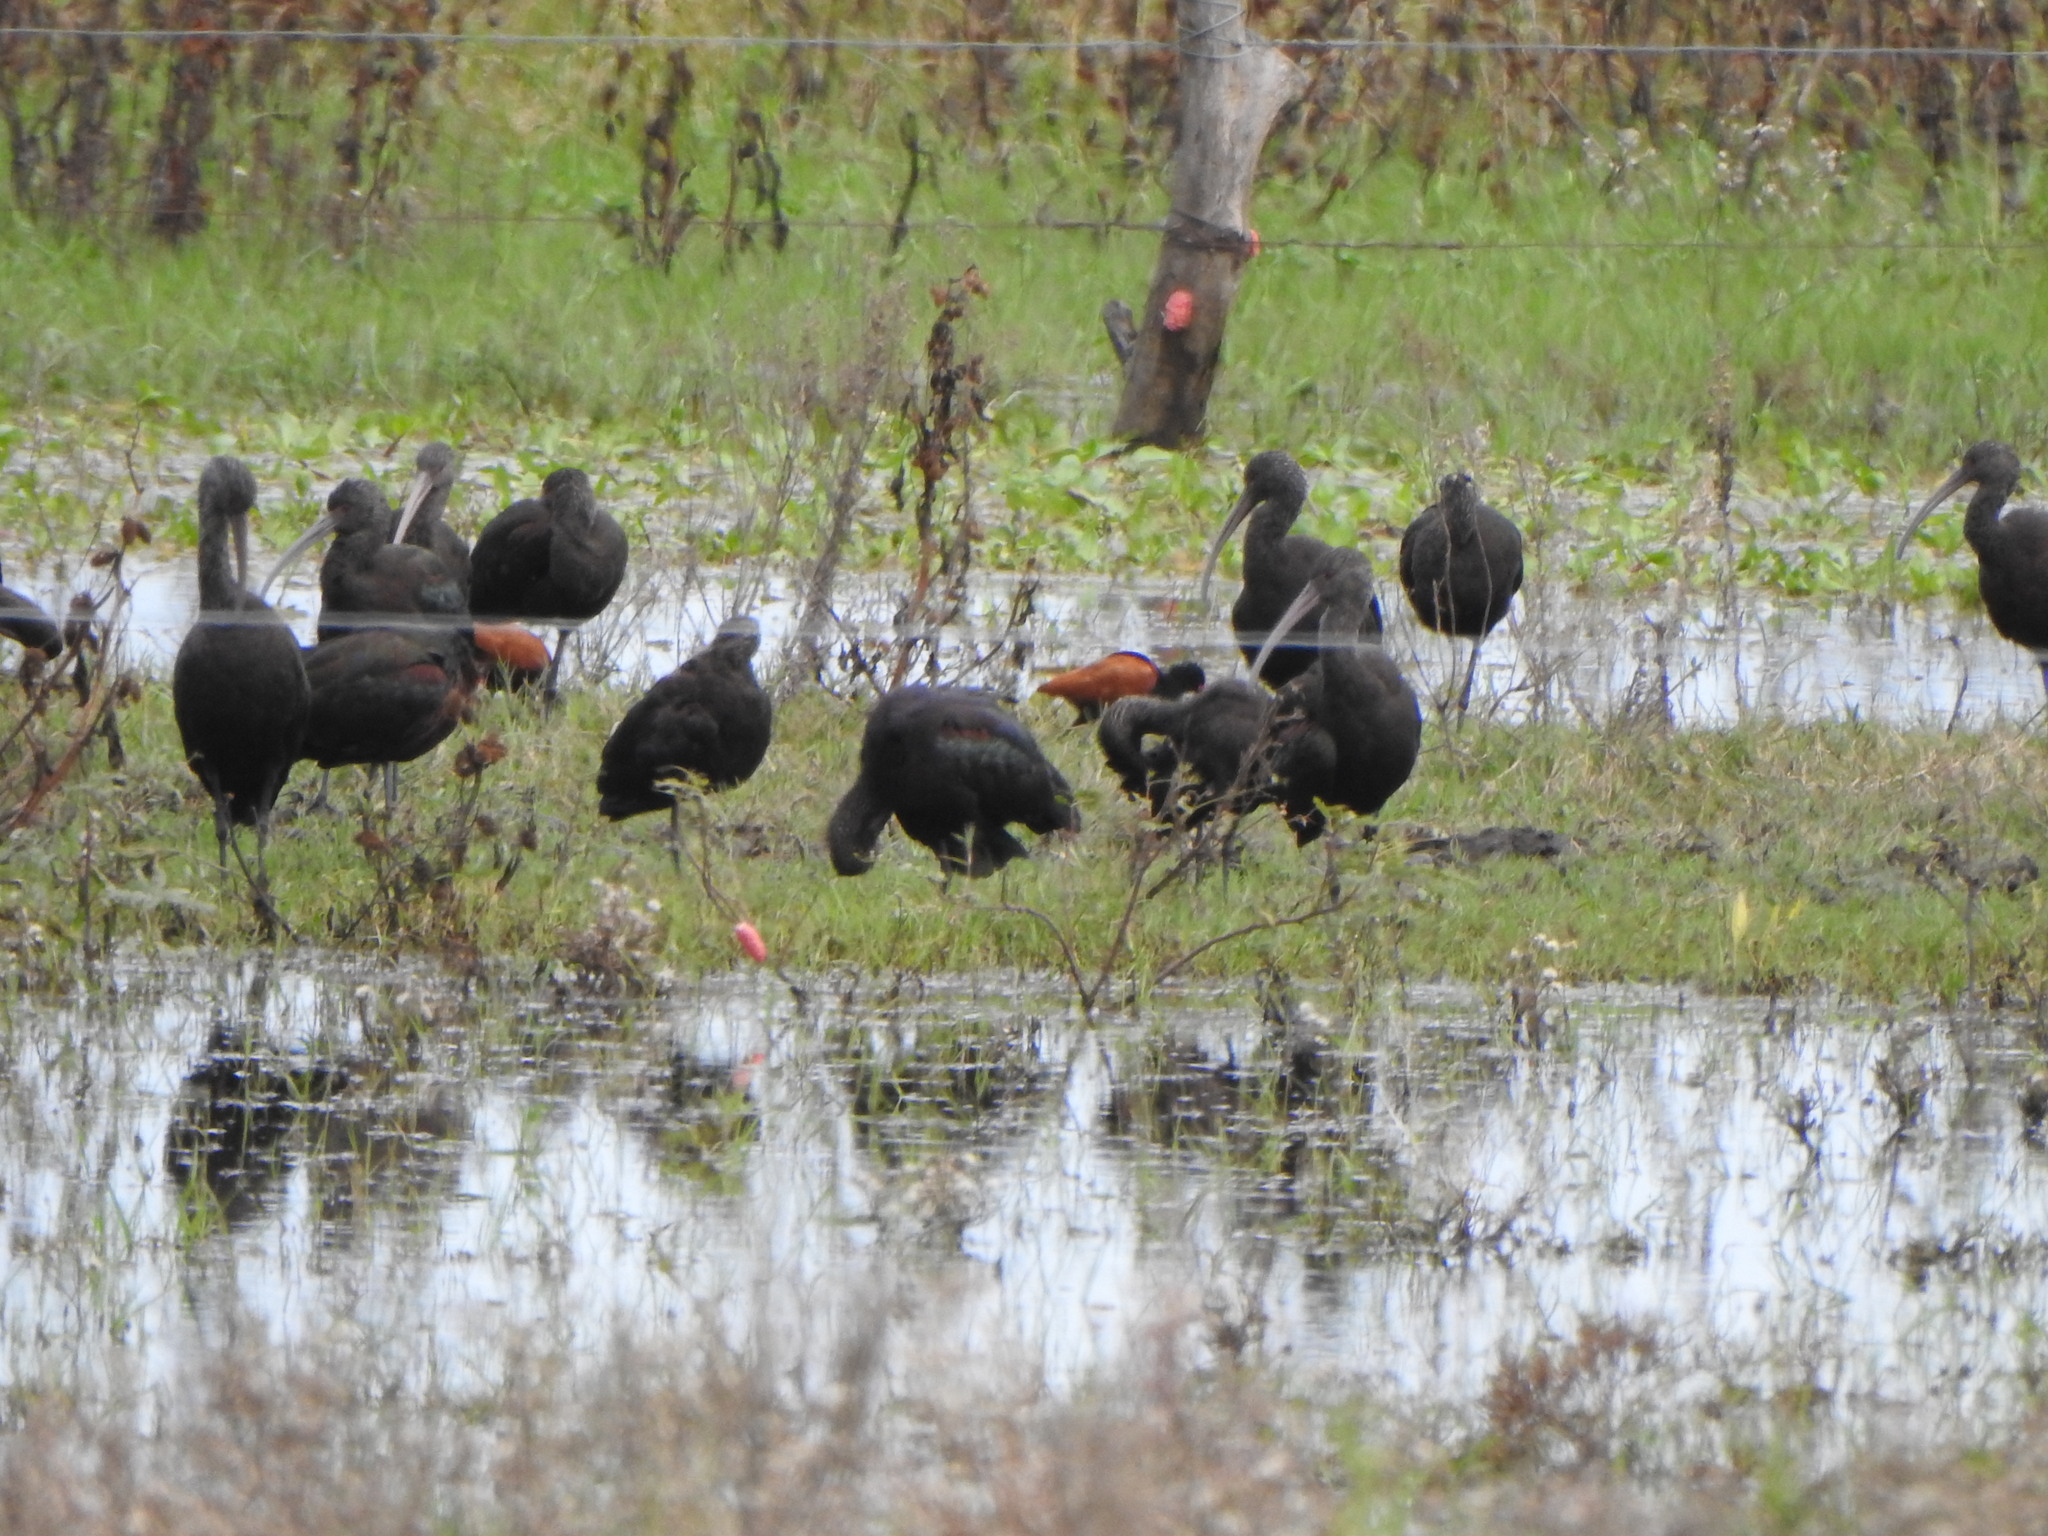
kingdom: Animalia
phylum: Chordata
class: Aves
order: Pelecaniformes
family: Threskiornithidae
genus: Plegadis
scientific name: Plegadis chihi
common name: White-faced ibis
